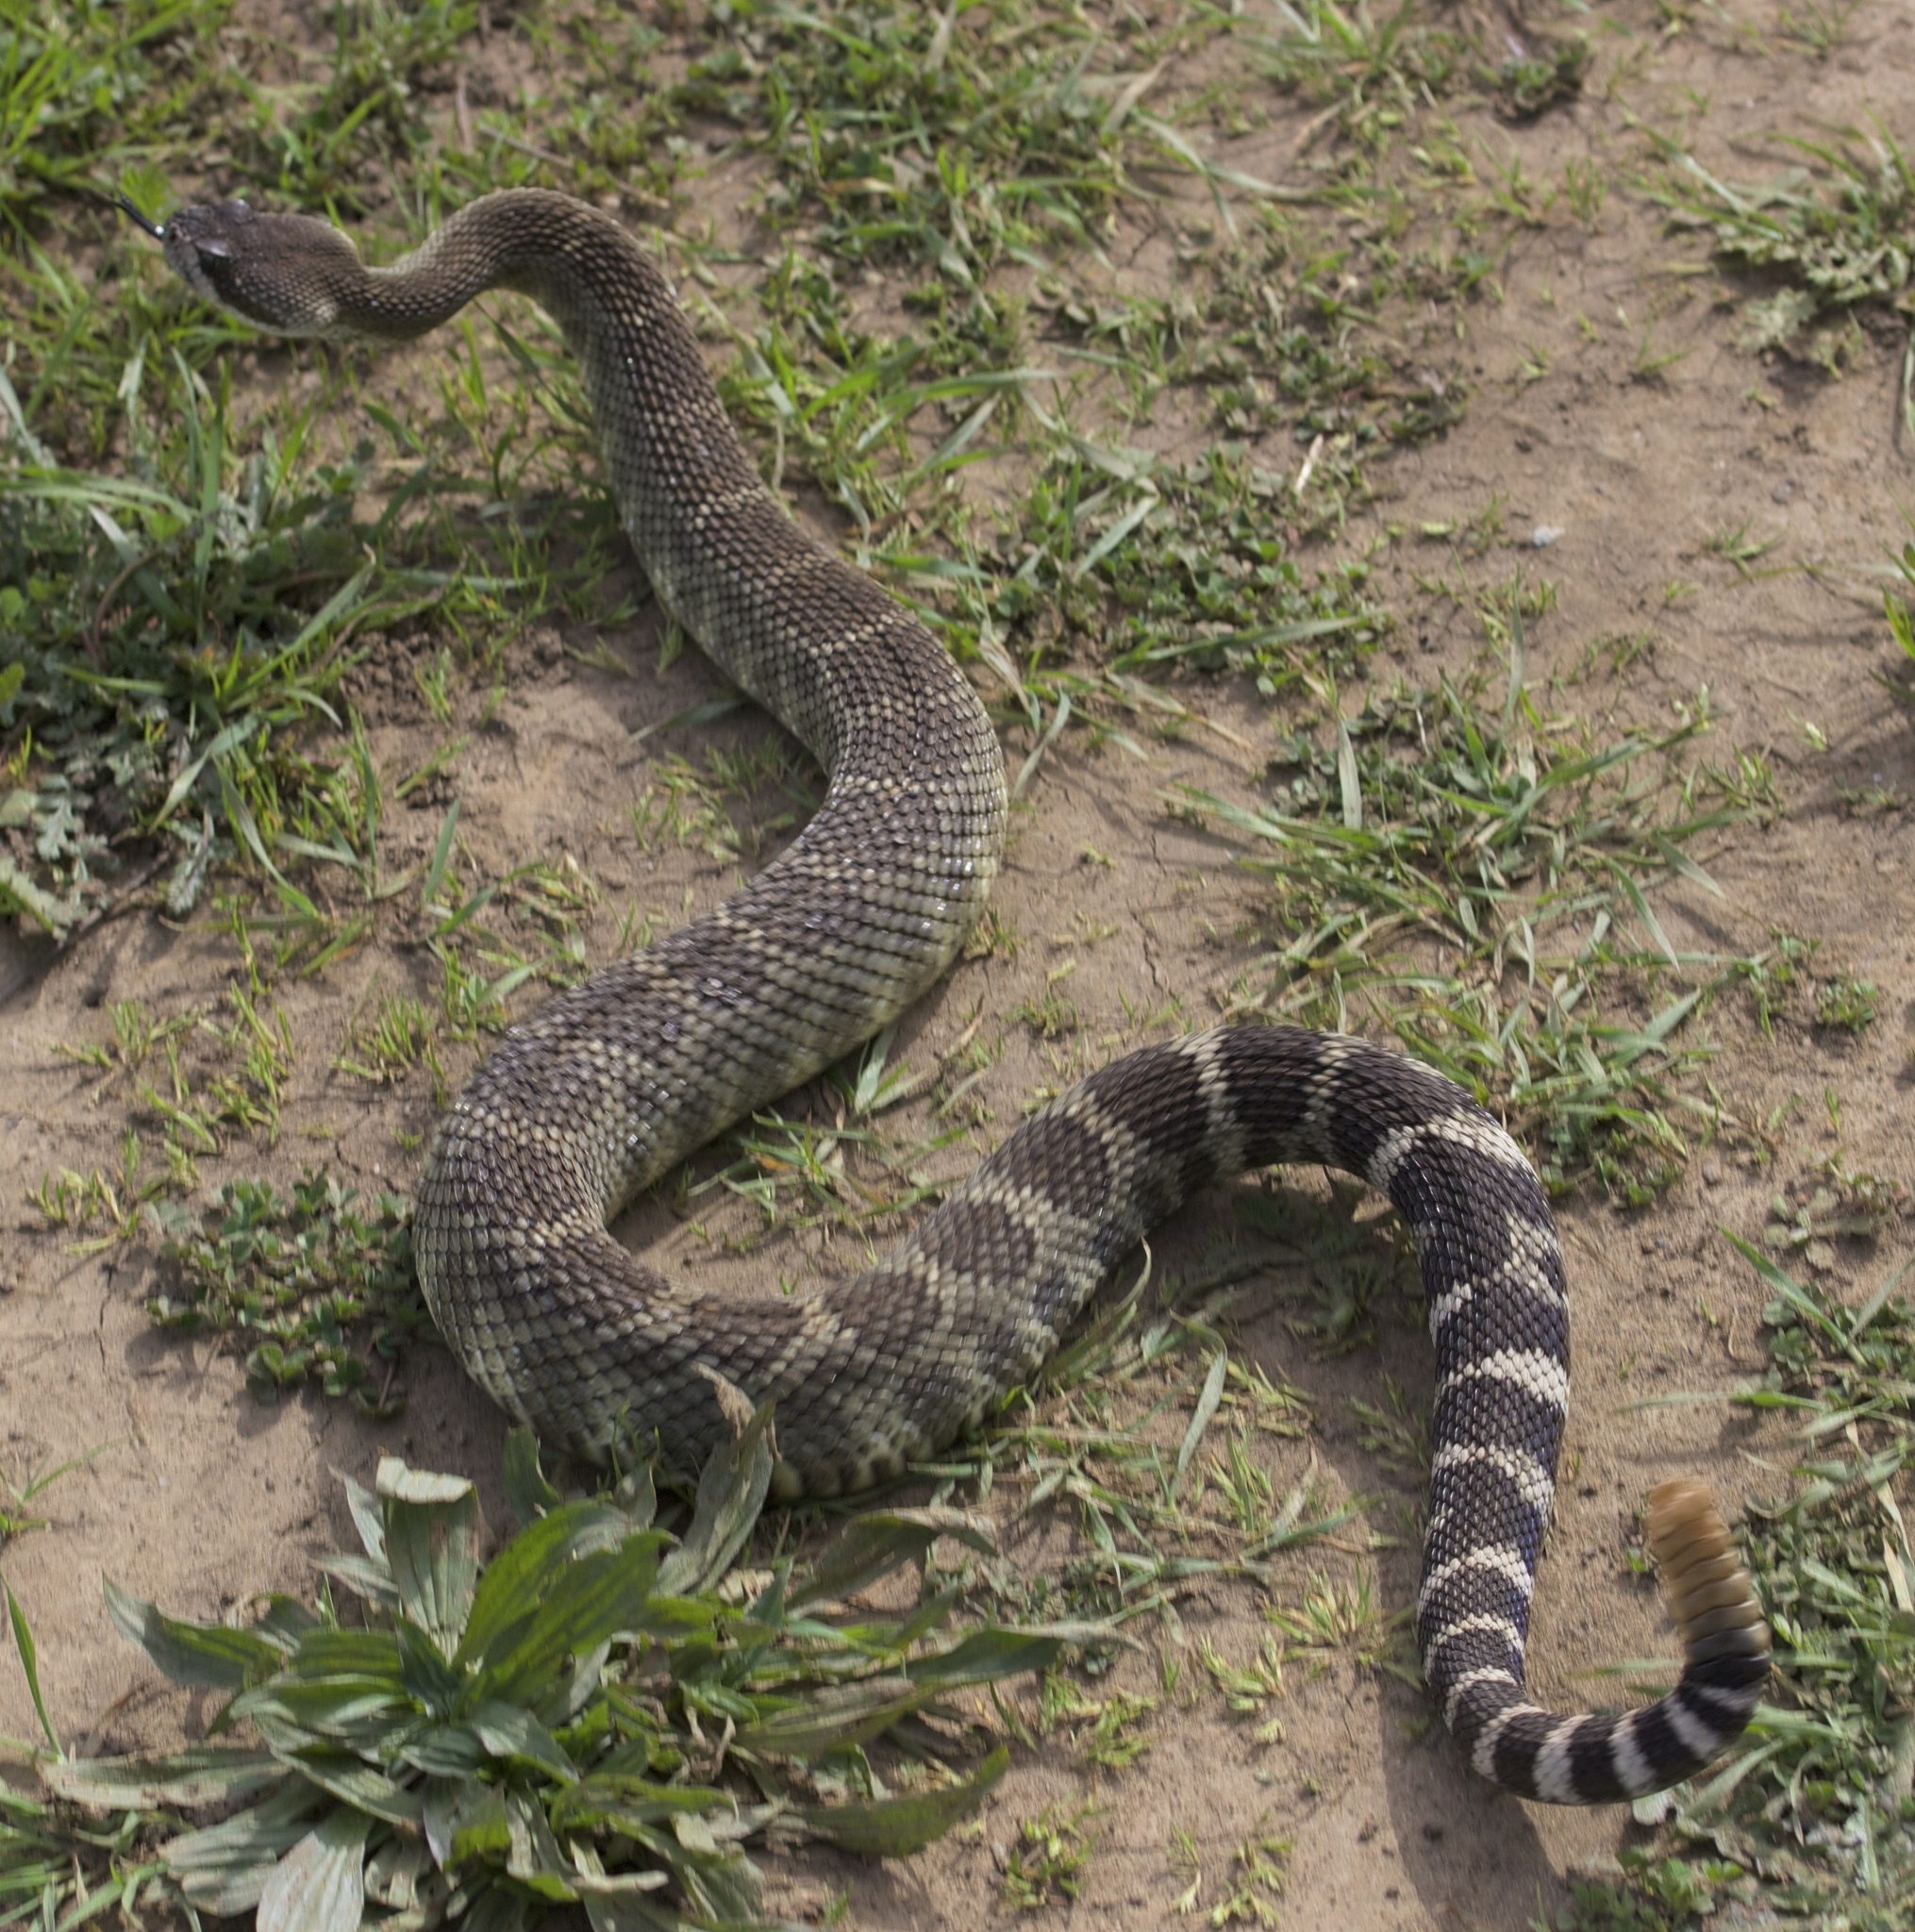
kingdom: Animalia
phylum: Chordata
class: Squamata
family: Viperidae
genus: Crotalus
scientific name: Crotalus oreganus
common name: Abyssus
